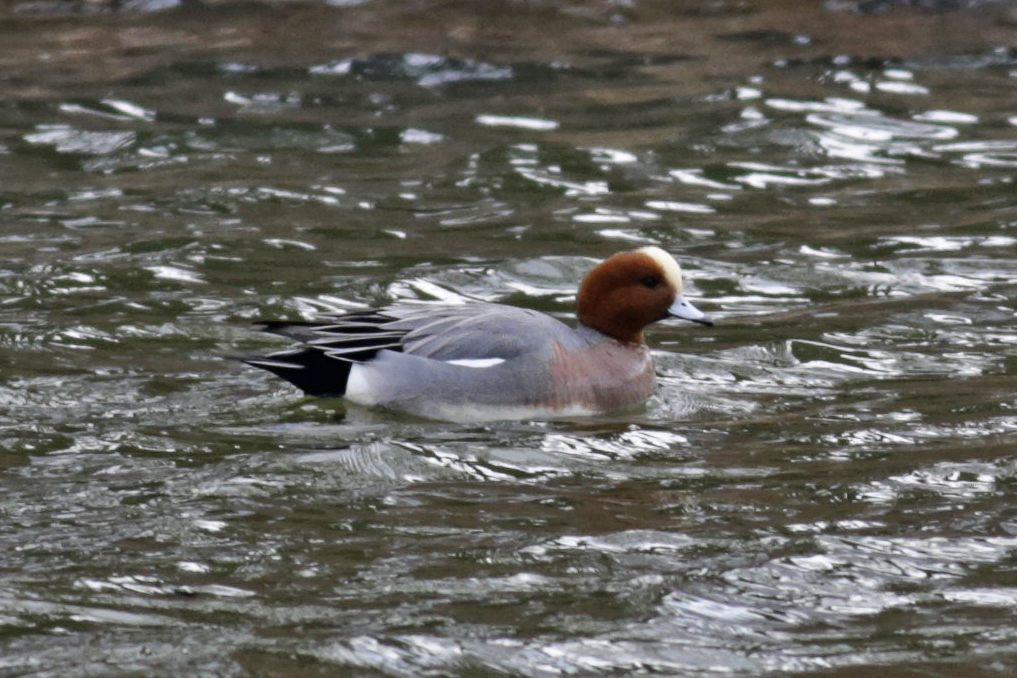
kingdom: Animalia
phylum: Chordata
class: Aves
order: Anseriformes
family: Anatidae
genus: Mareca
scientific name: Mareca penelope
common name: Eurasian wigeon
